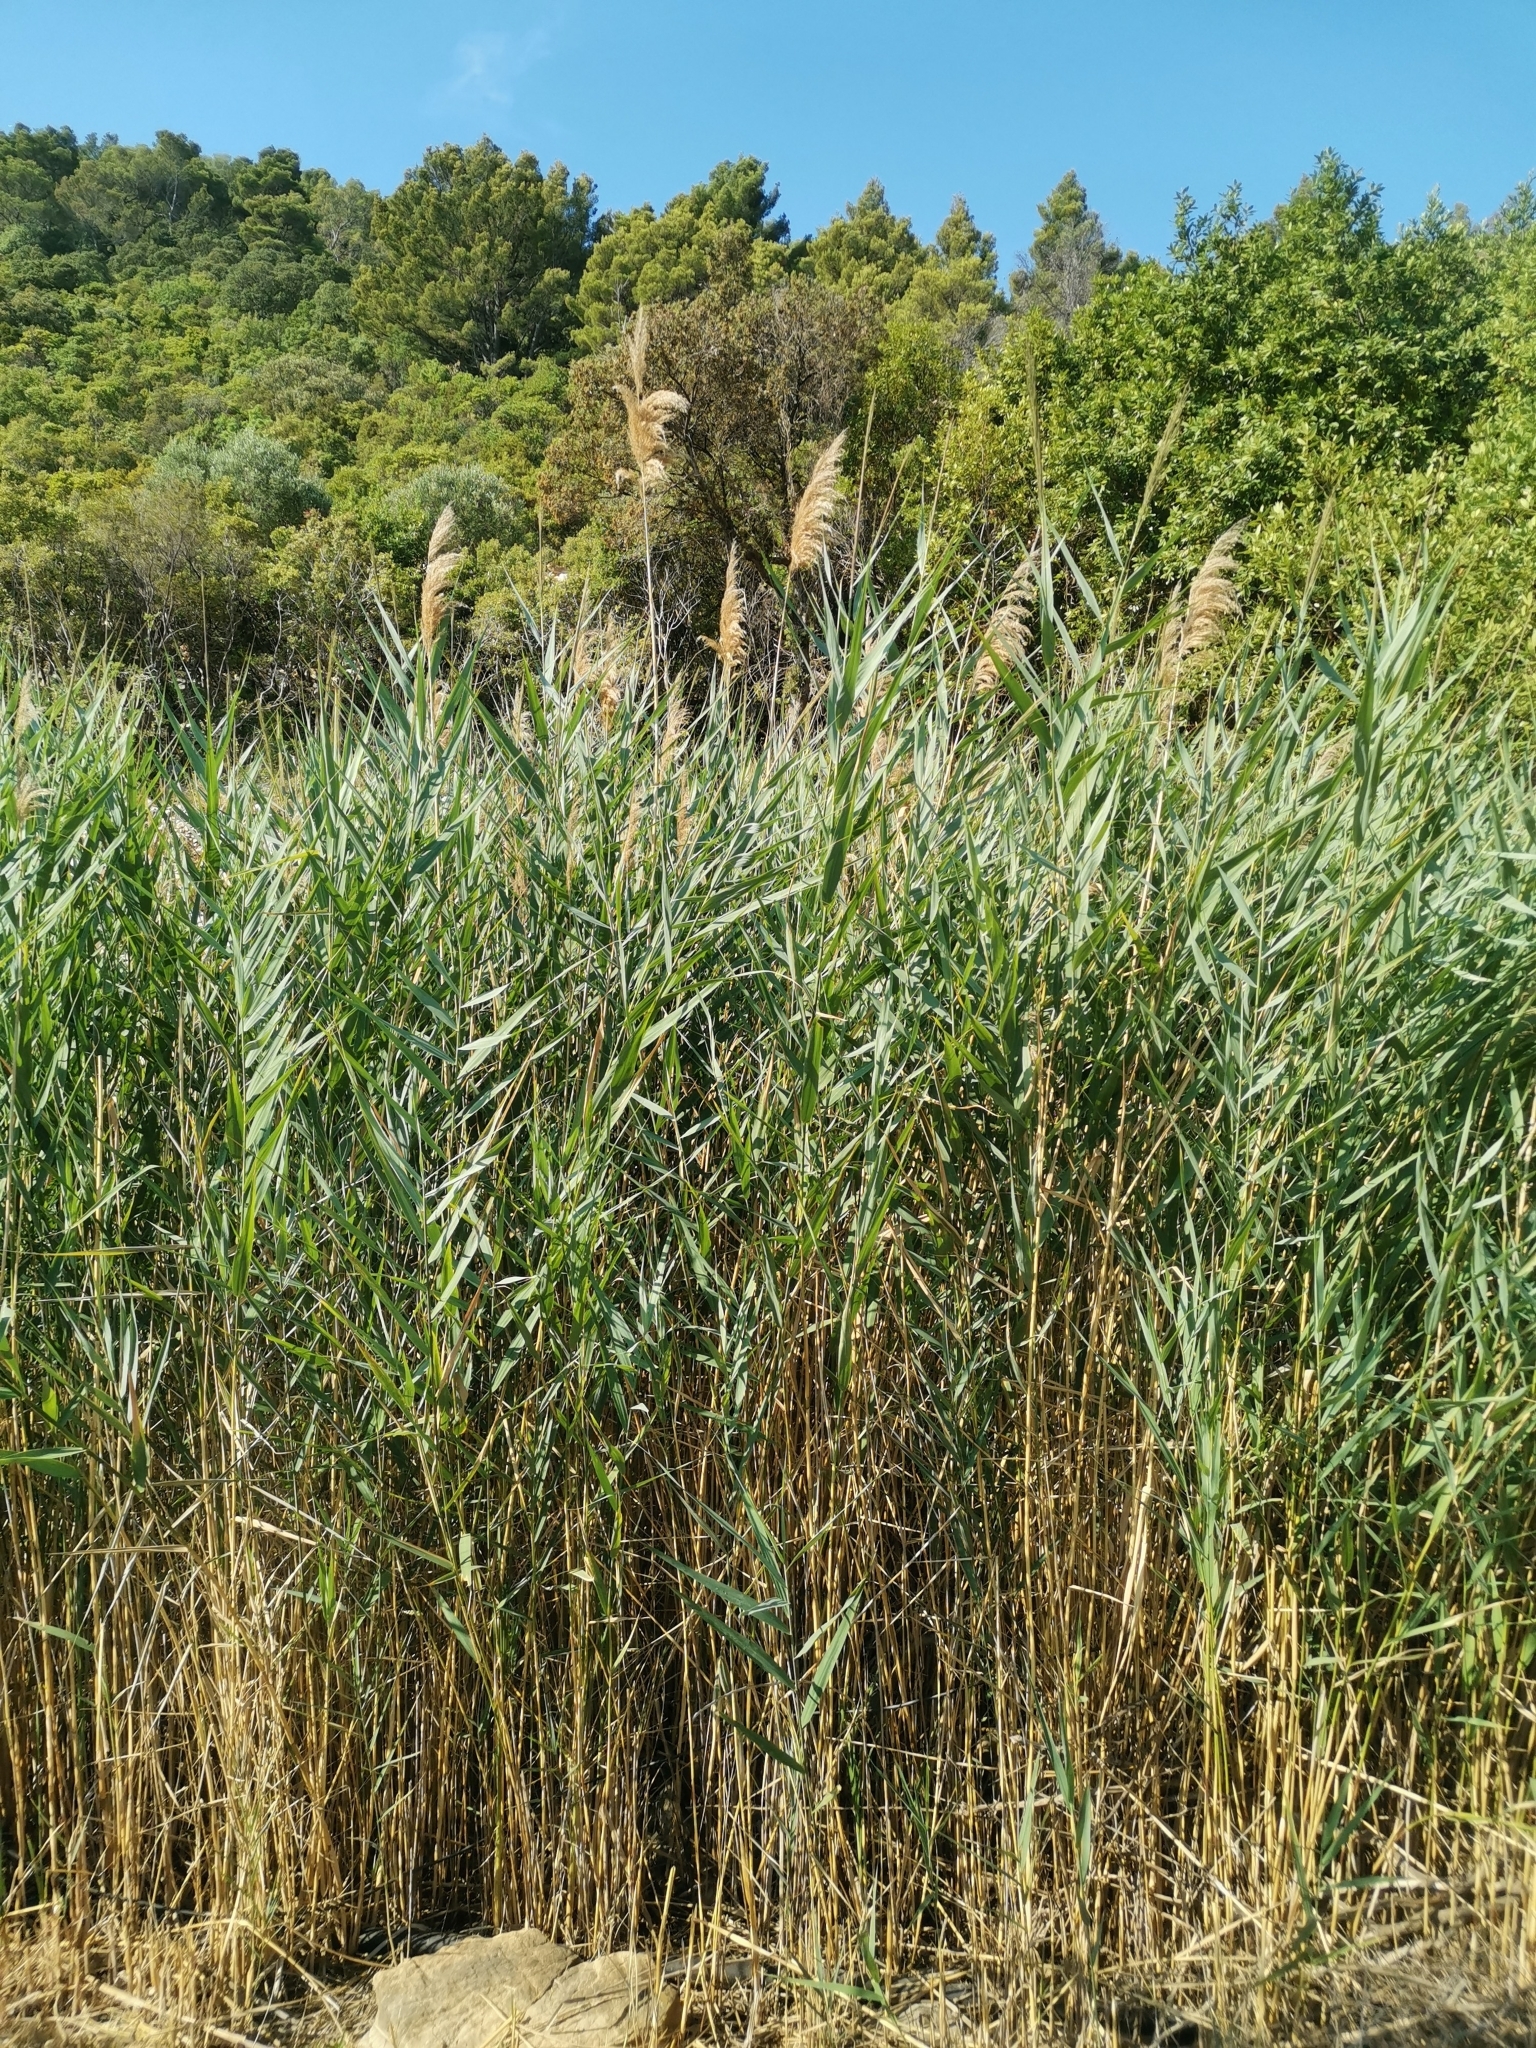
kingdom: Plantae
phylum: Tracheophyta
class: Liliopsida
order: Poales
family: Poaceae
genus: Phragmites
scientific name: Phragmites australis
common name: Common reed
